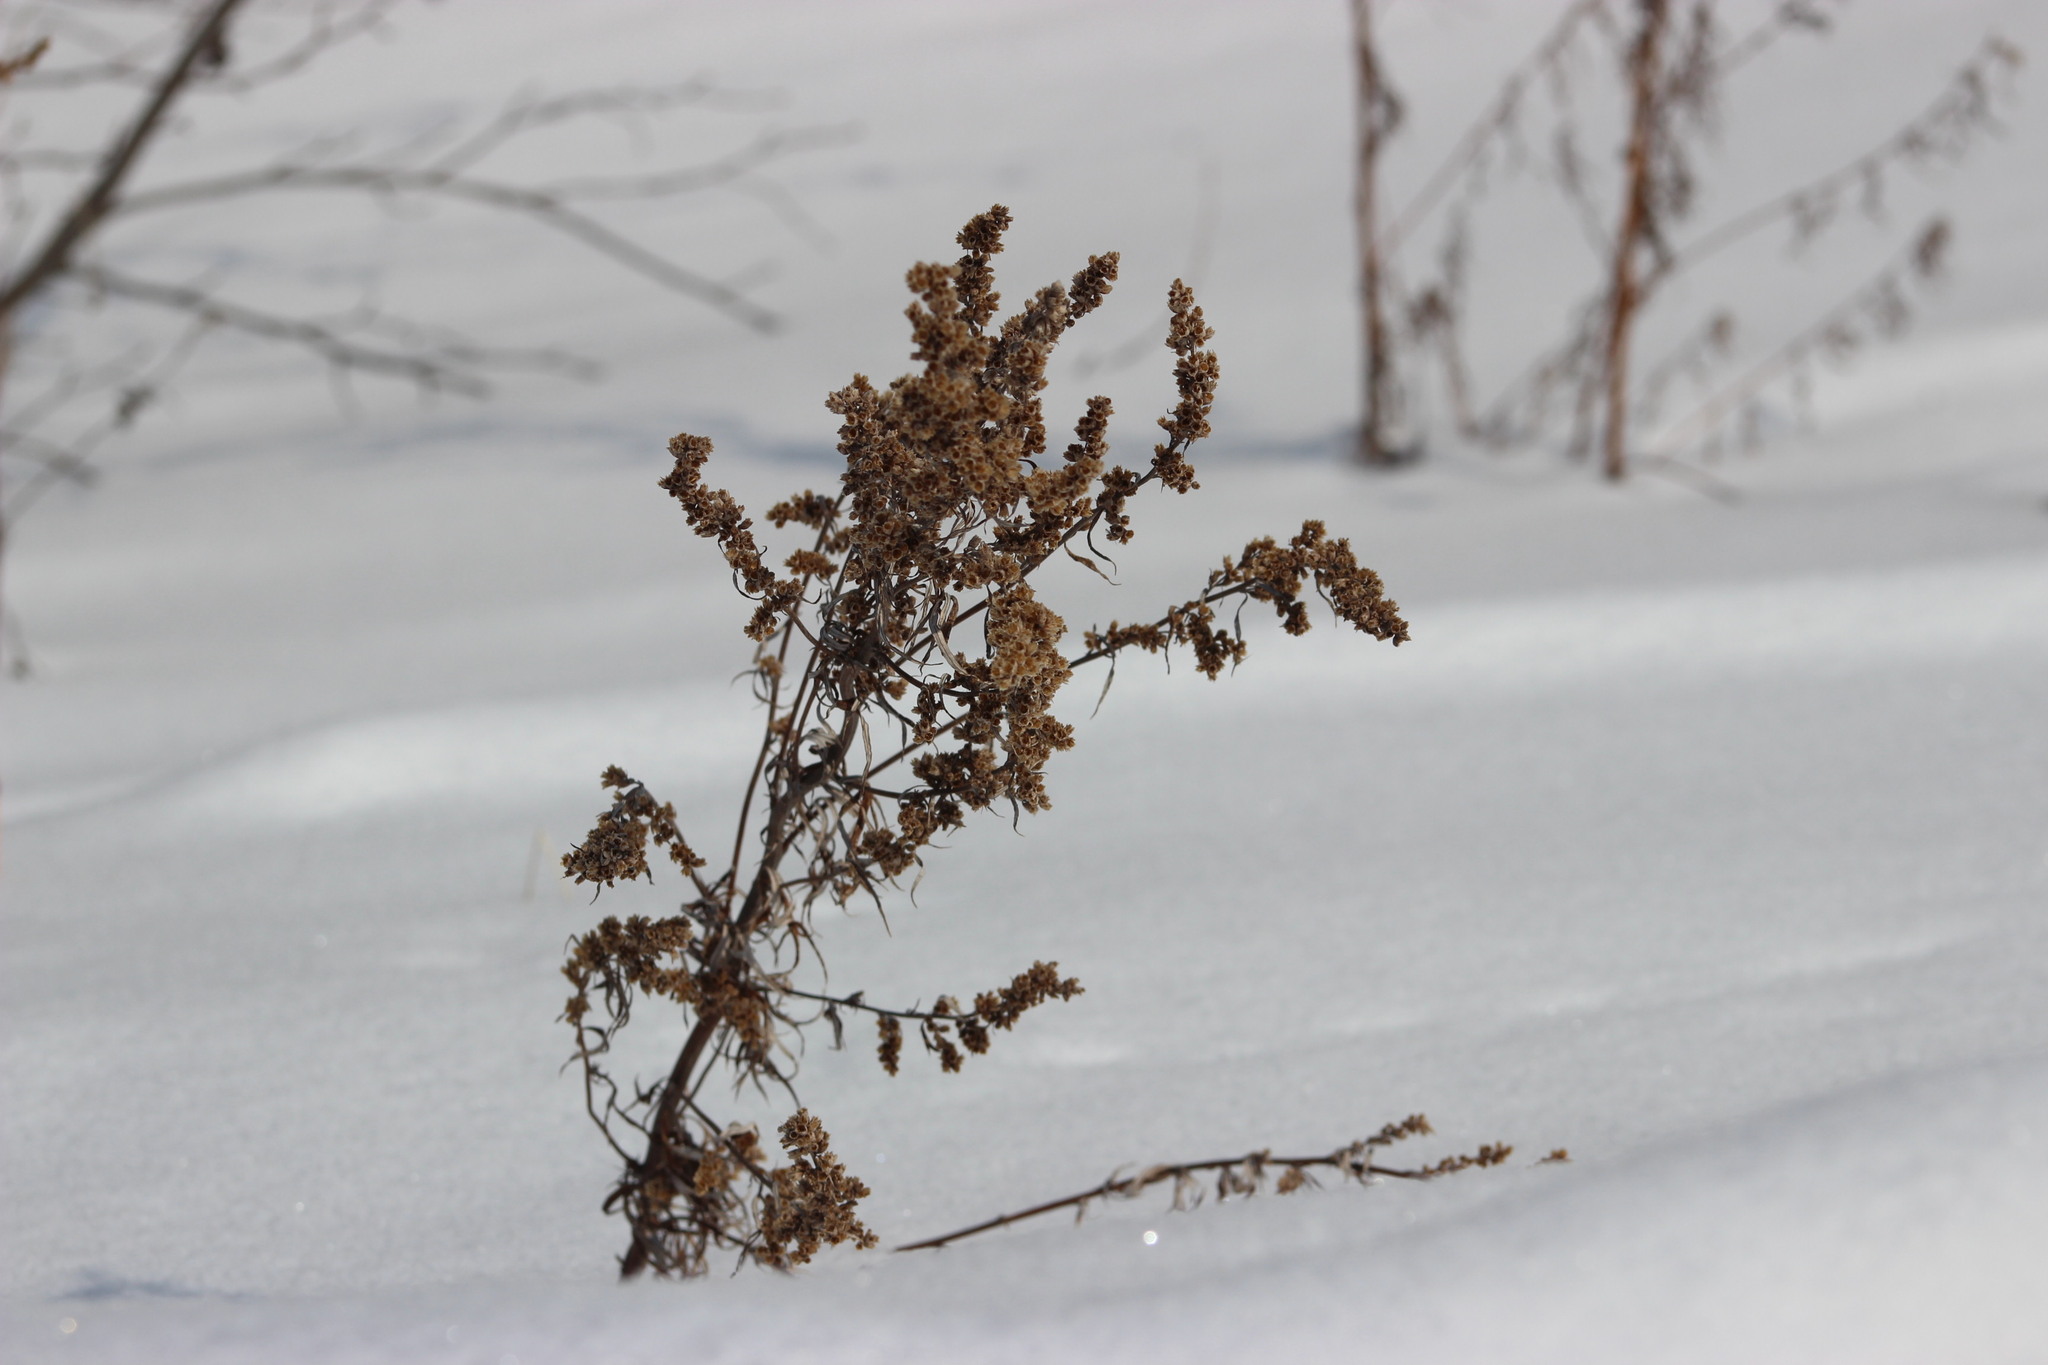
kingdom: Plantae
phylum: Tracheophyta
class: Magnoliopsida
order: Asterales
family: Asteraceae
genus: Artemisia
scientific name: Artemisia vulgaris
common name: Mugwort
